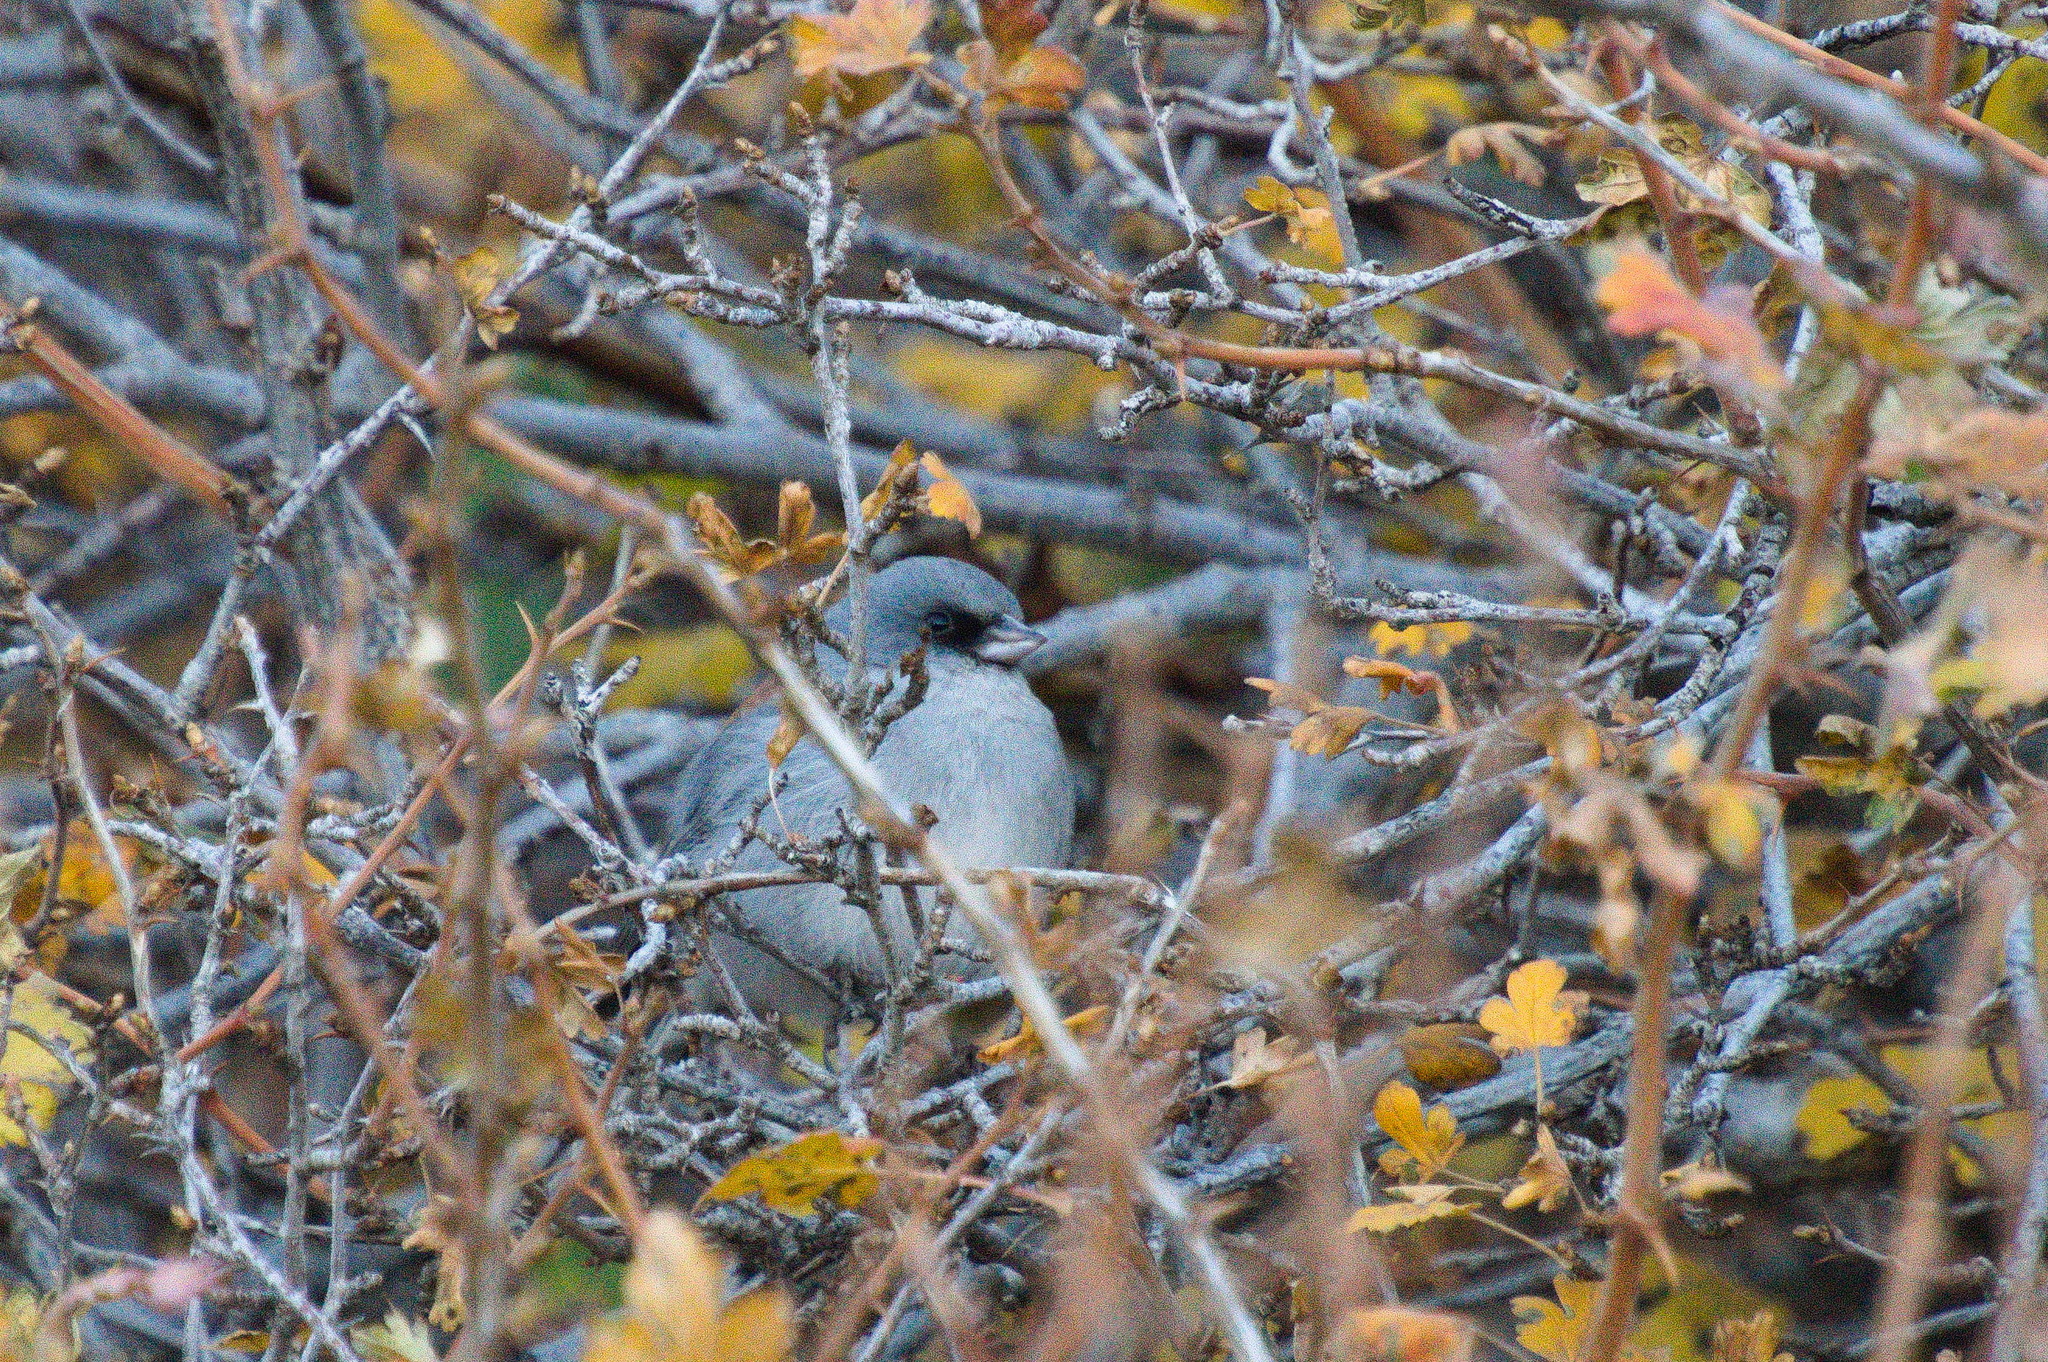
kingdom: Animalia
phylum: Chordata
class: Aves
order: Passeriformes
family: Passerellidae
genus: Junco
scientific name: Junco hyemalis
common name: Dark-eyed junco
